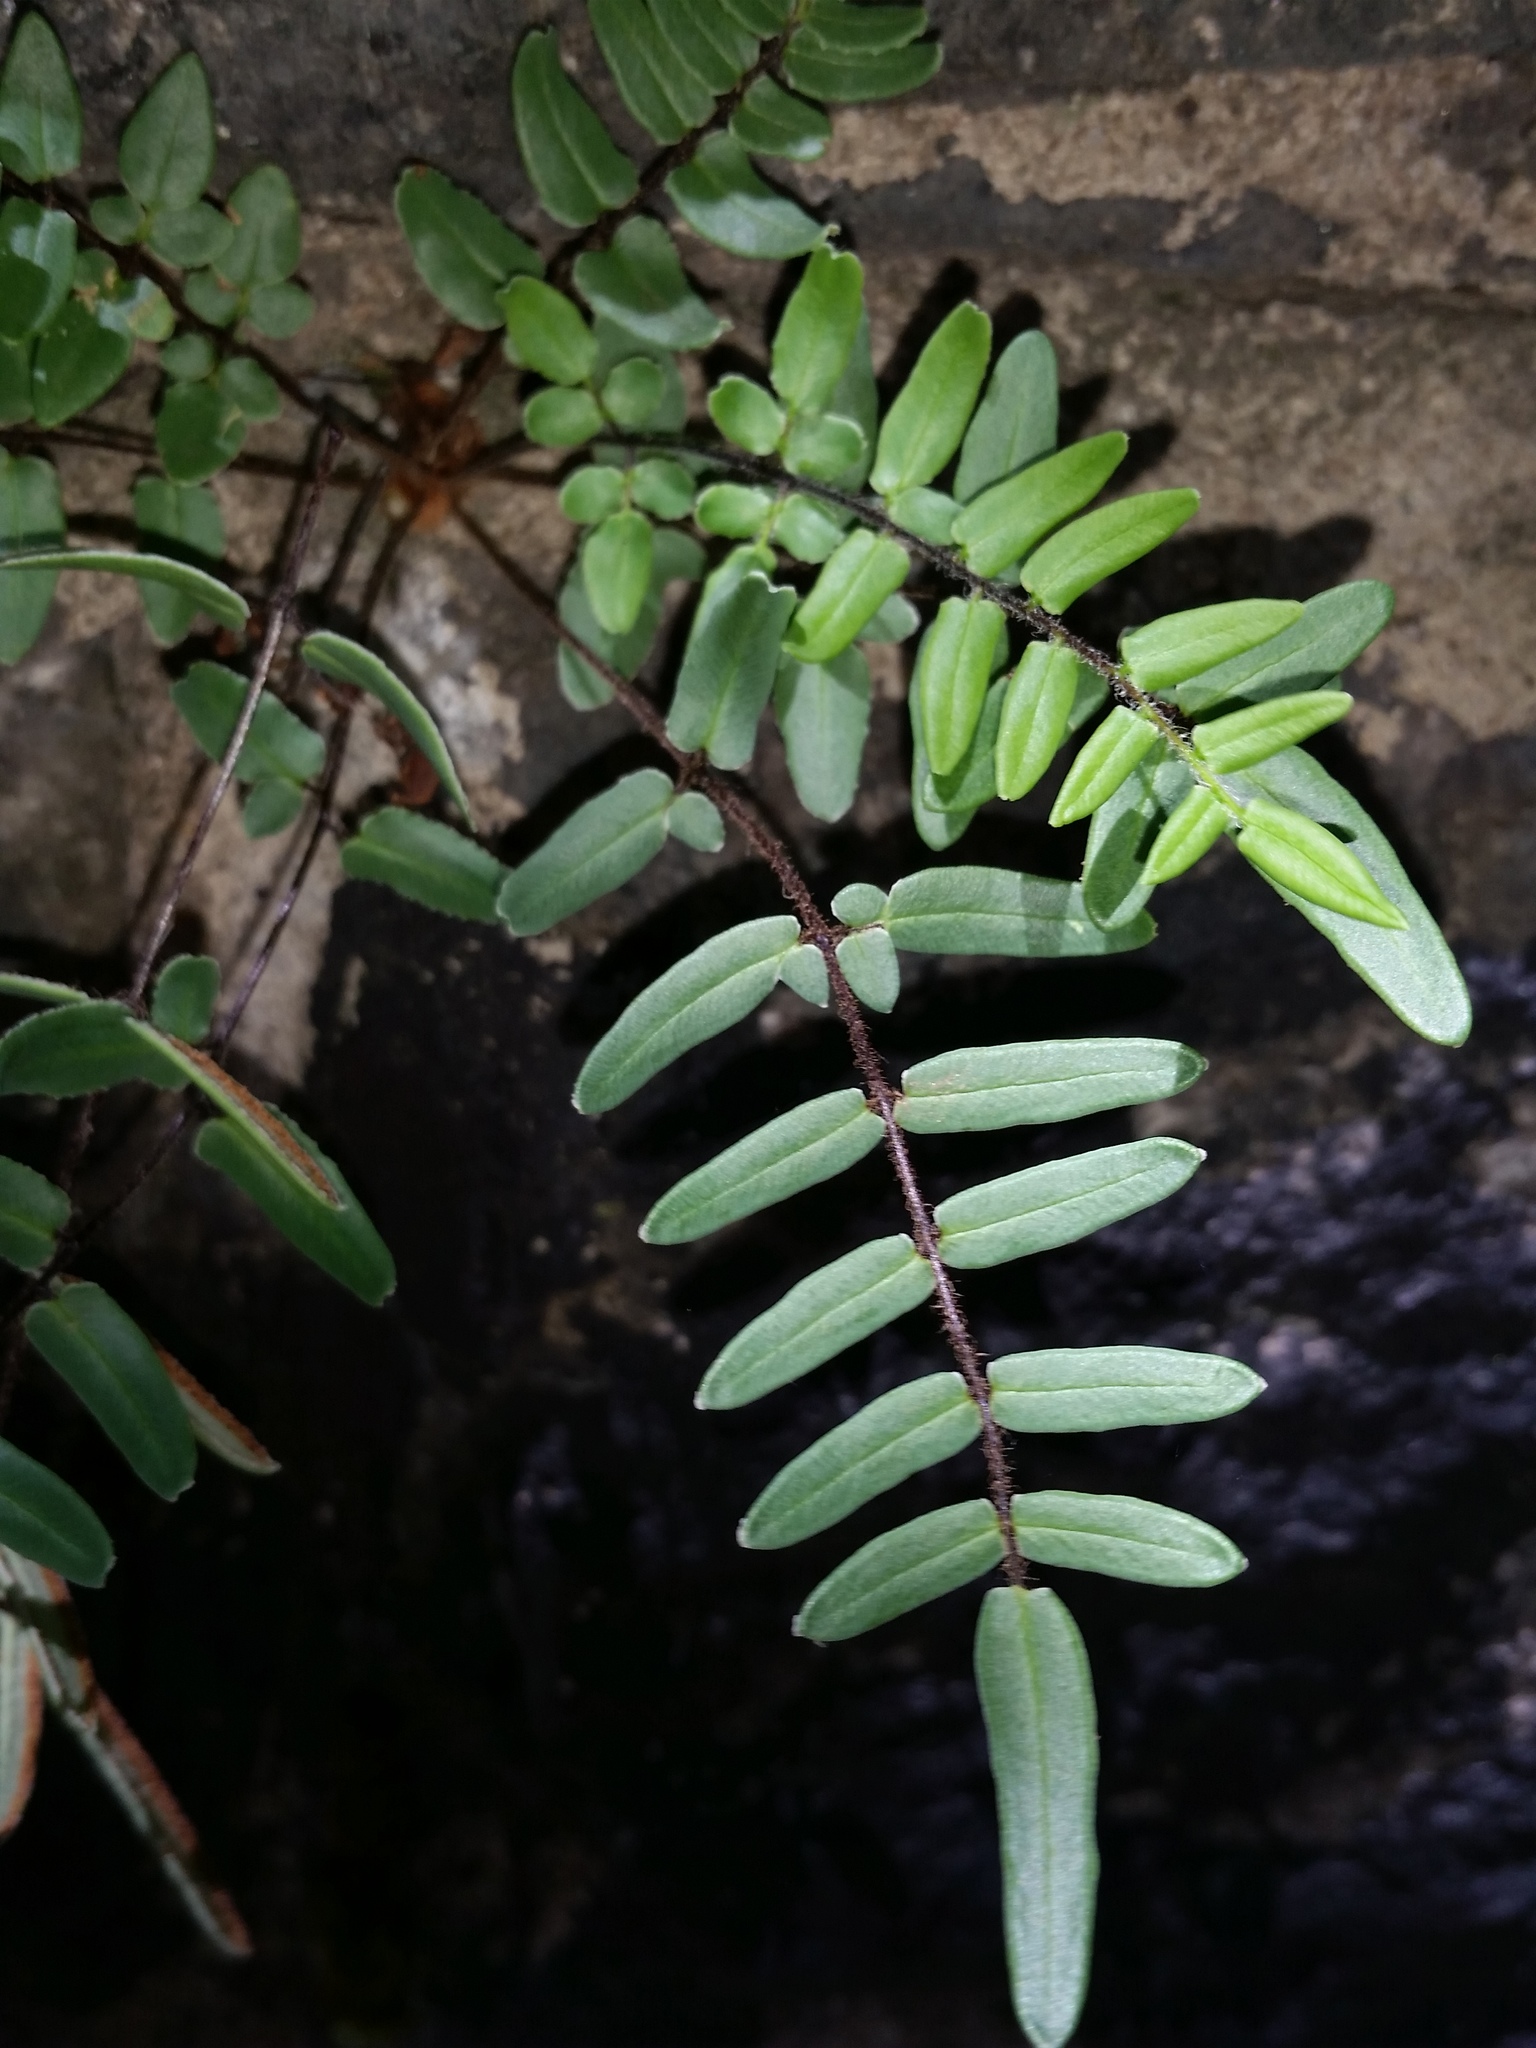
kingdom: Plantae
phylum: Tracheophyta
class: Polypodiopsida
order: Polypodiales
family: Pteridaceae
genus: Pellaea
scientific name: Pellaea atropurpurea
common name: Hairy cliffbrake
